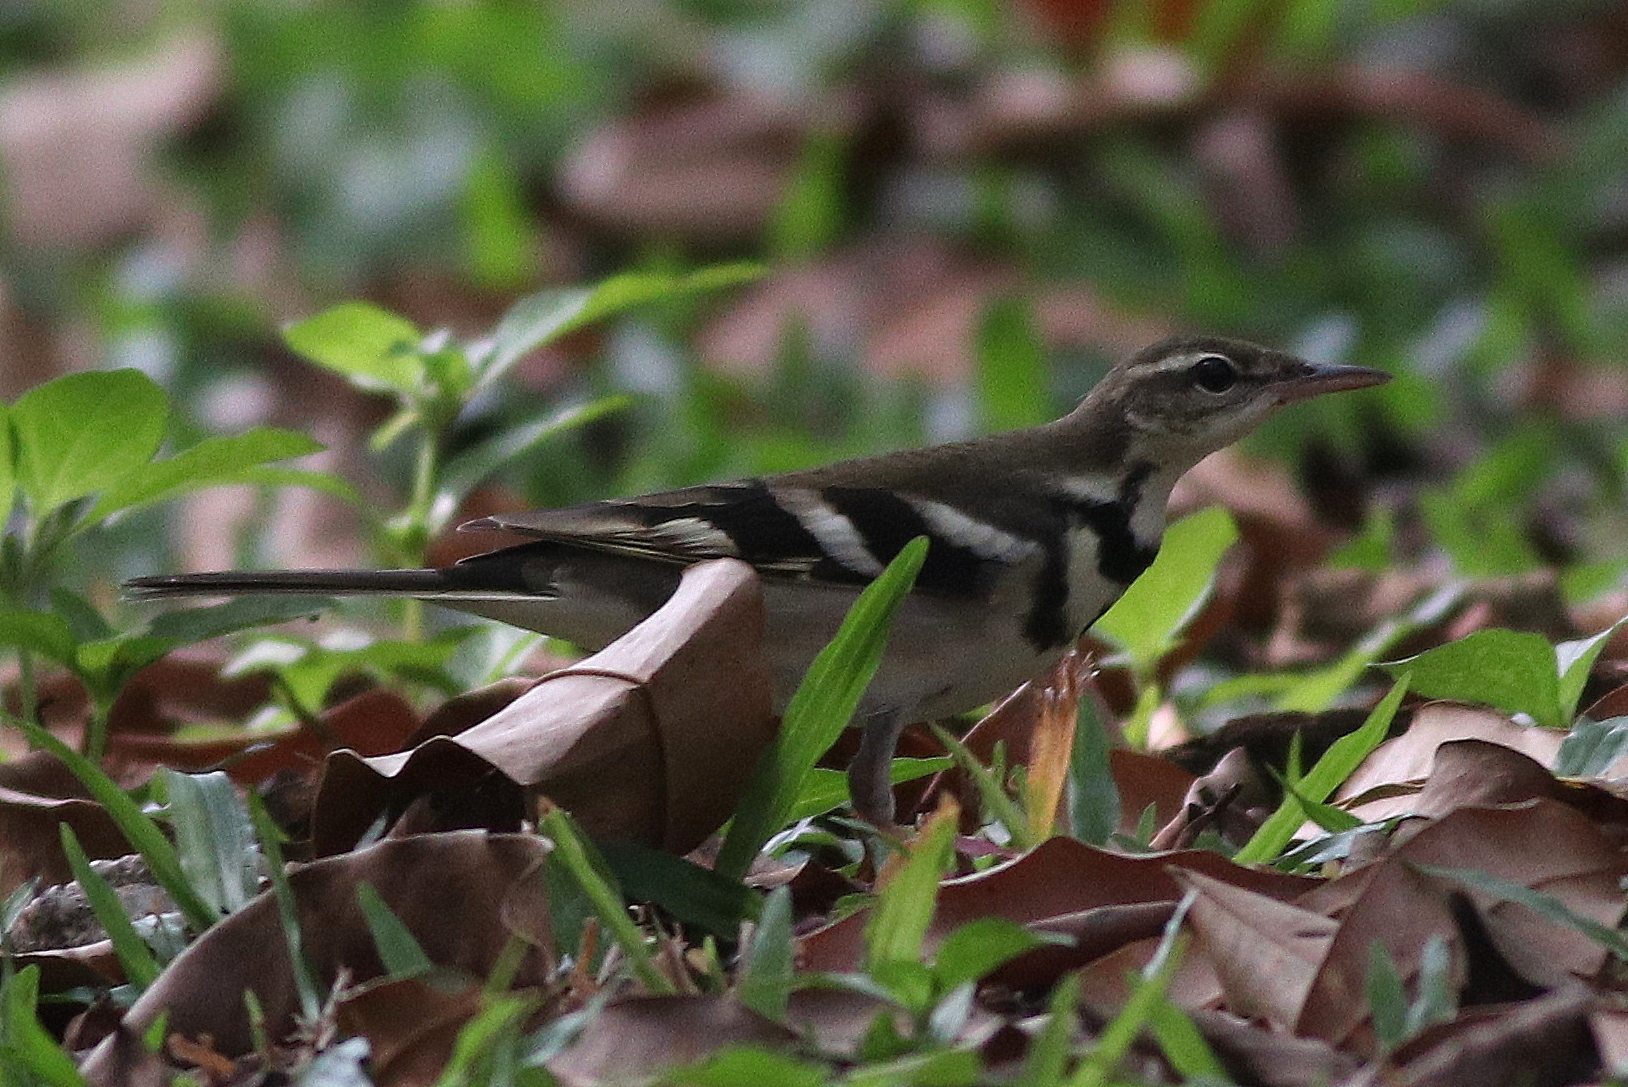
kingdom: Animalia
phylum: Chordata
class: Aves
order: Passeriformes
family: Motacillidae
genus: Dendronanthus
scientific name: Dendronanthus indicus
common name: Forest wagtail
